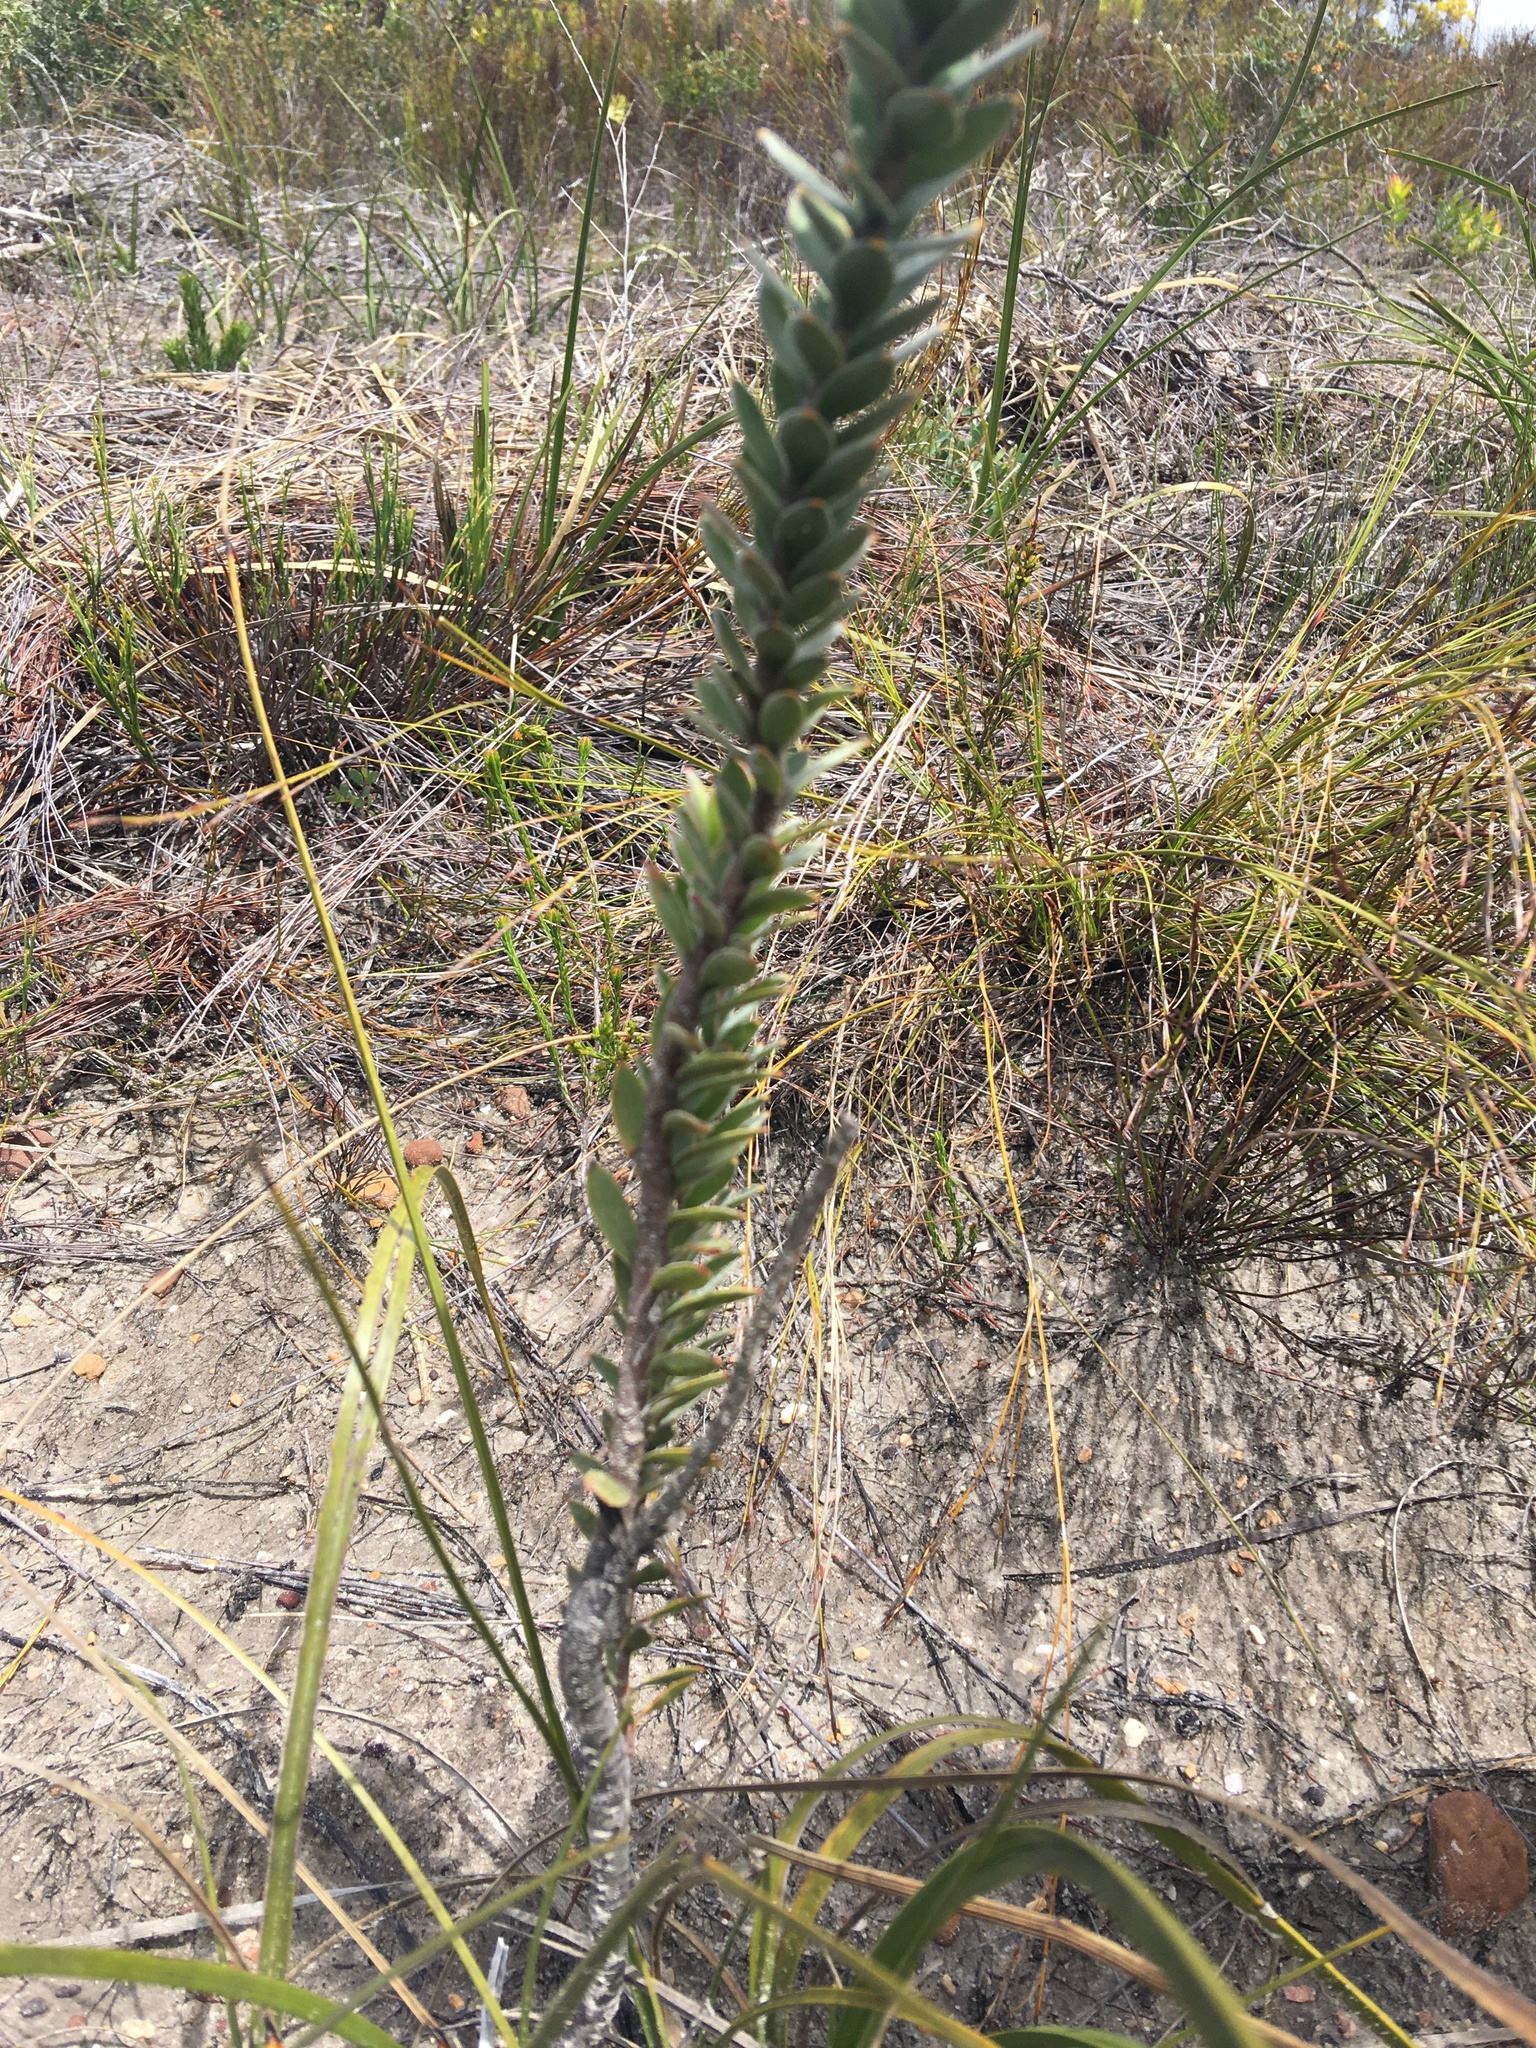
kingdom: Plantae
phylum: Tracheophyta
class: Magnoliopsida
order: Proteales
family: Proteaceae
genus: Leucospermum
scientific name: Leucospermum truncatulum
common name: Oval-leaf pincushion
